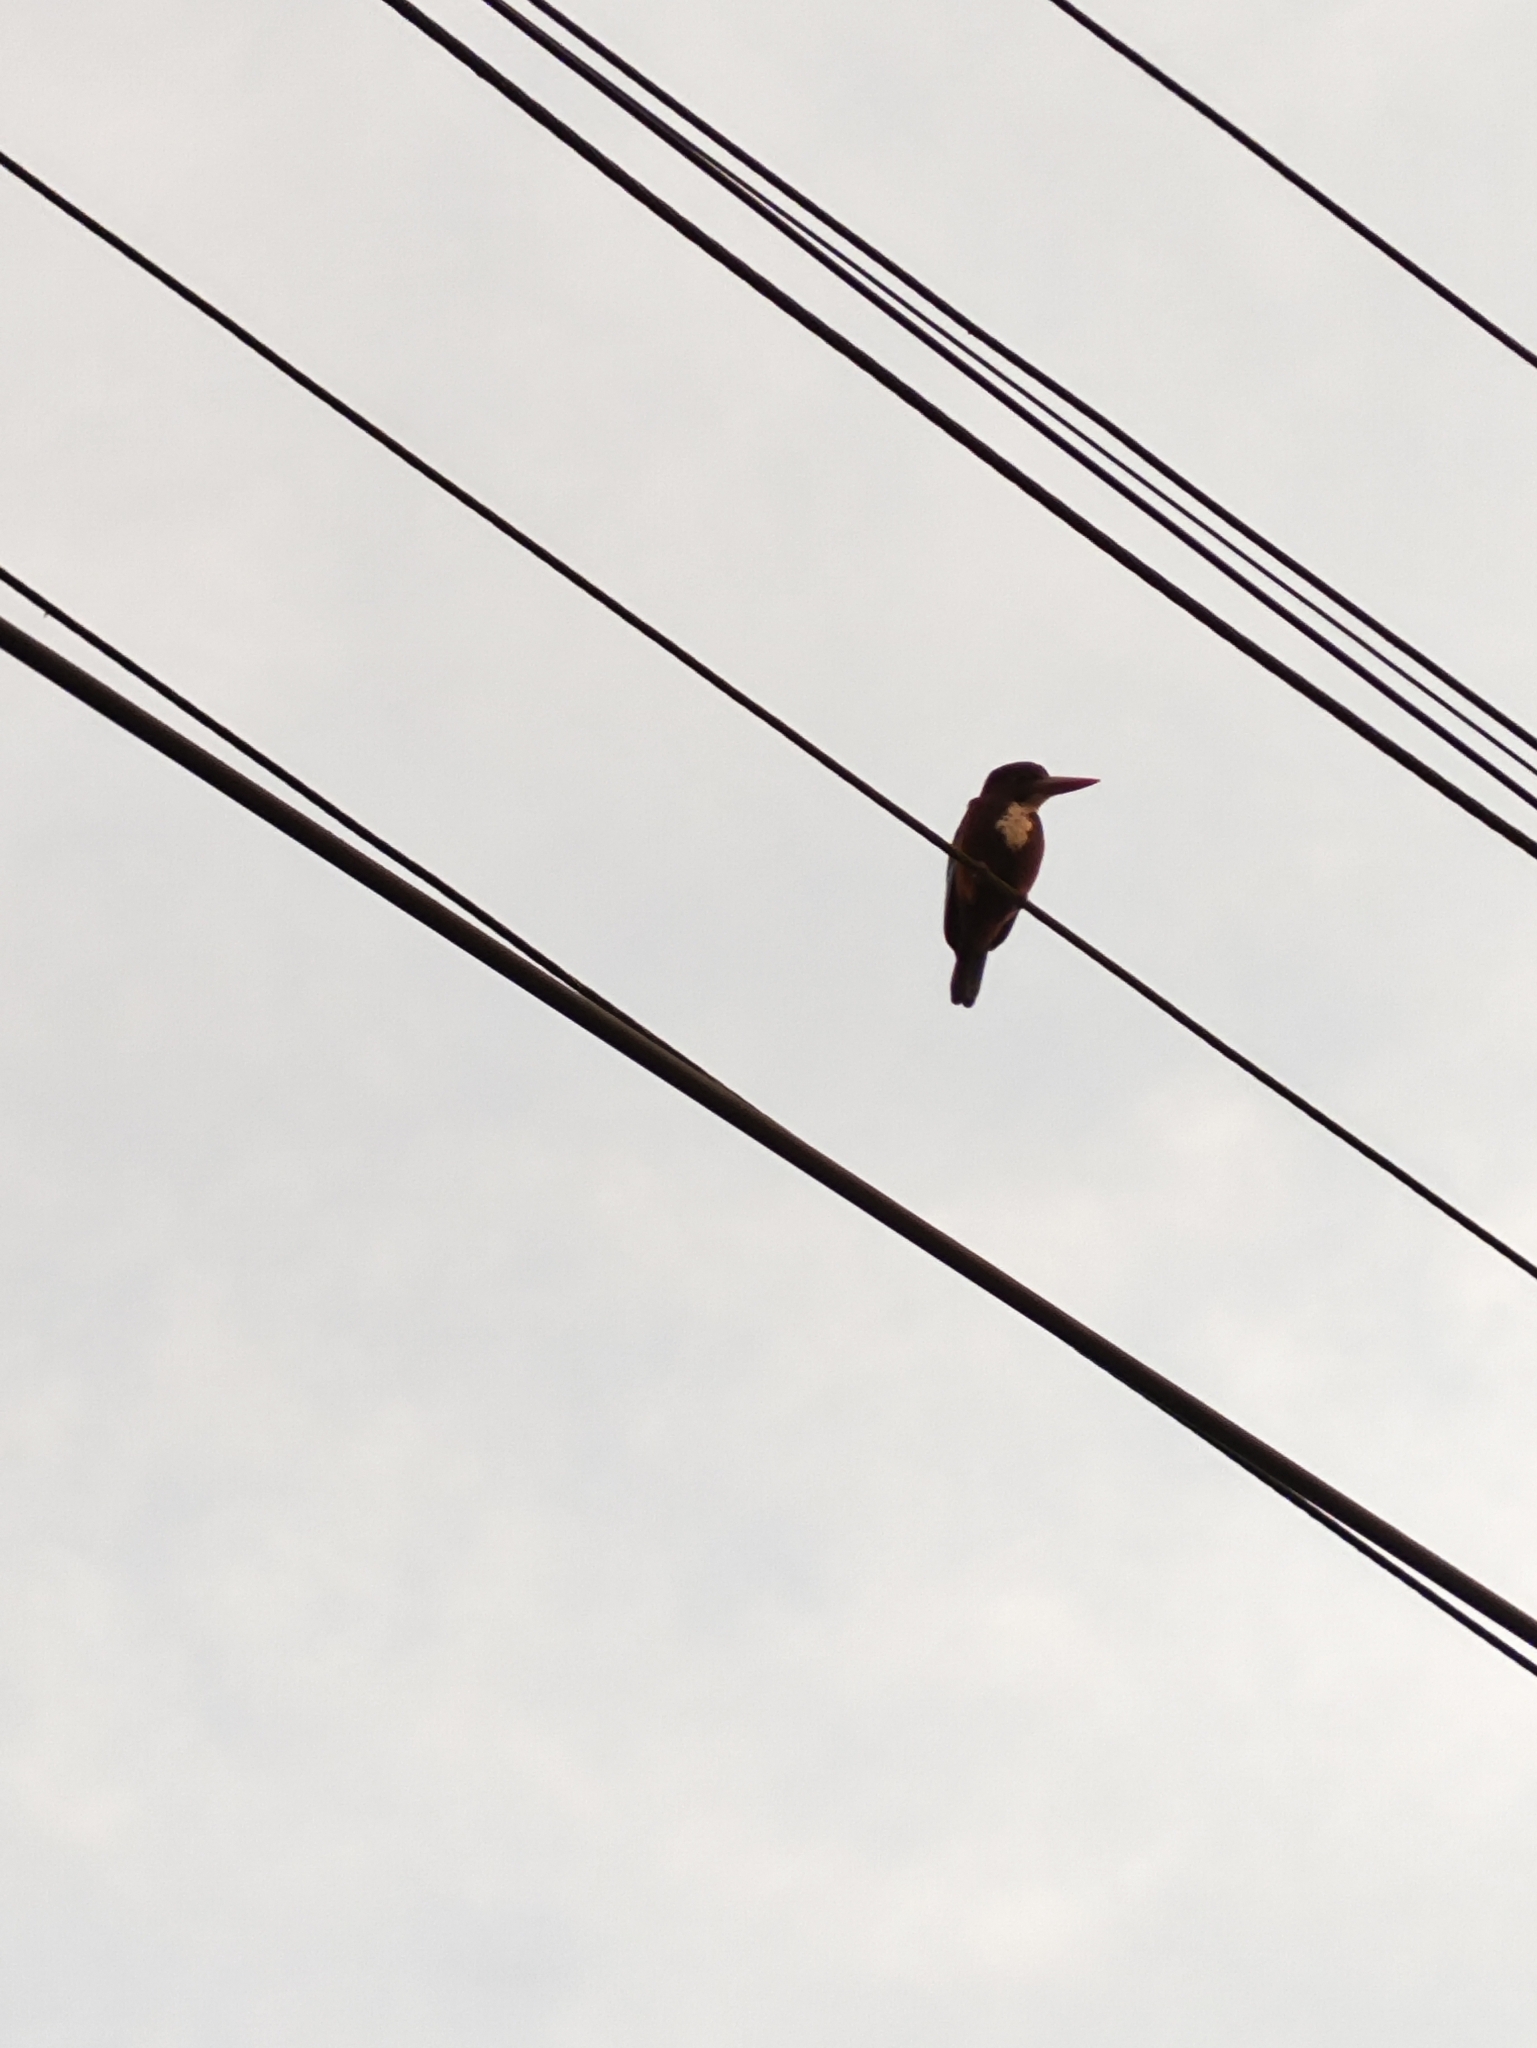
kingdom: Animalia
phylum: Chordata
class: Aves
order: Coraciiformes
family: Alcedinidae
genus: Halcyon
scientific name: Halcyon smyrnensis
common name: White-throated kingfisher
